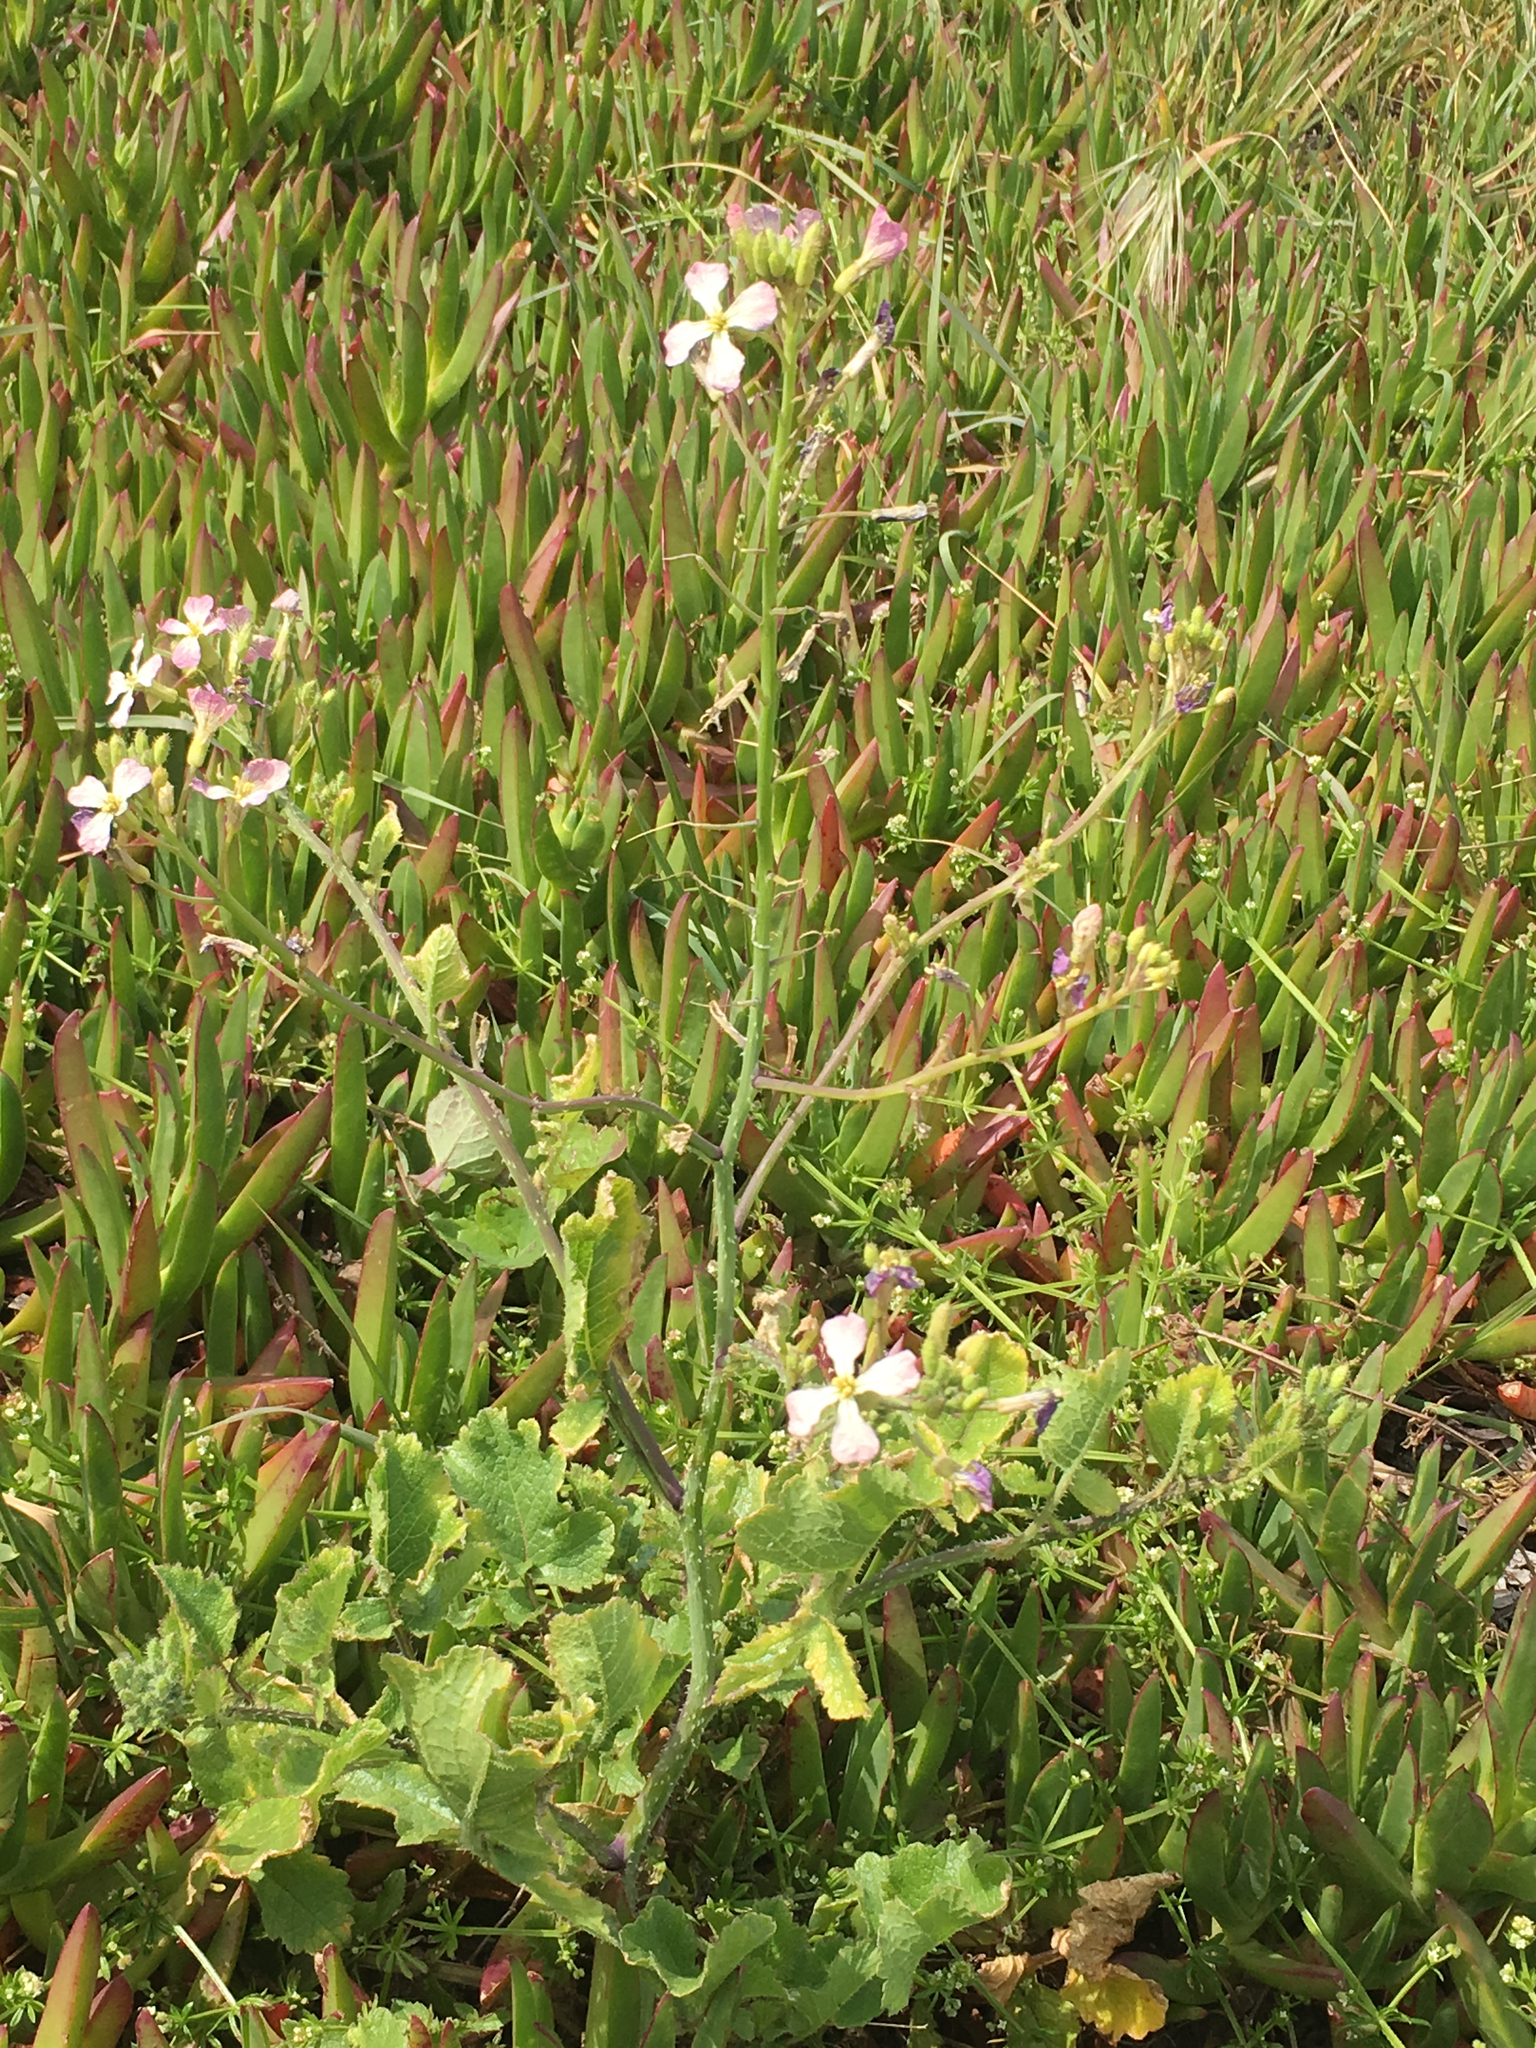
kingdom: Plantae
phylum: Tracheophyta
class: Magnoliopsida
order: Brassicales
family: Brassicaceae
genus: Raphanus
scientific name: Raphanus sativus
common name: Cultivated radish
